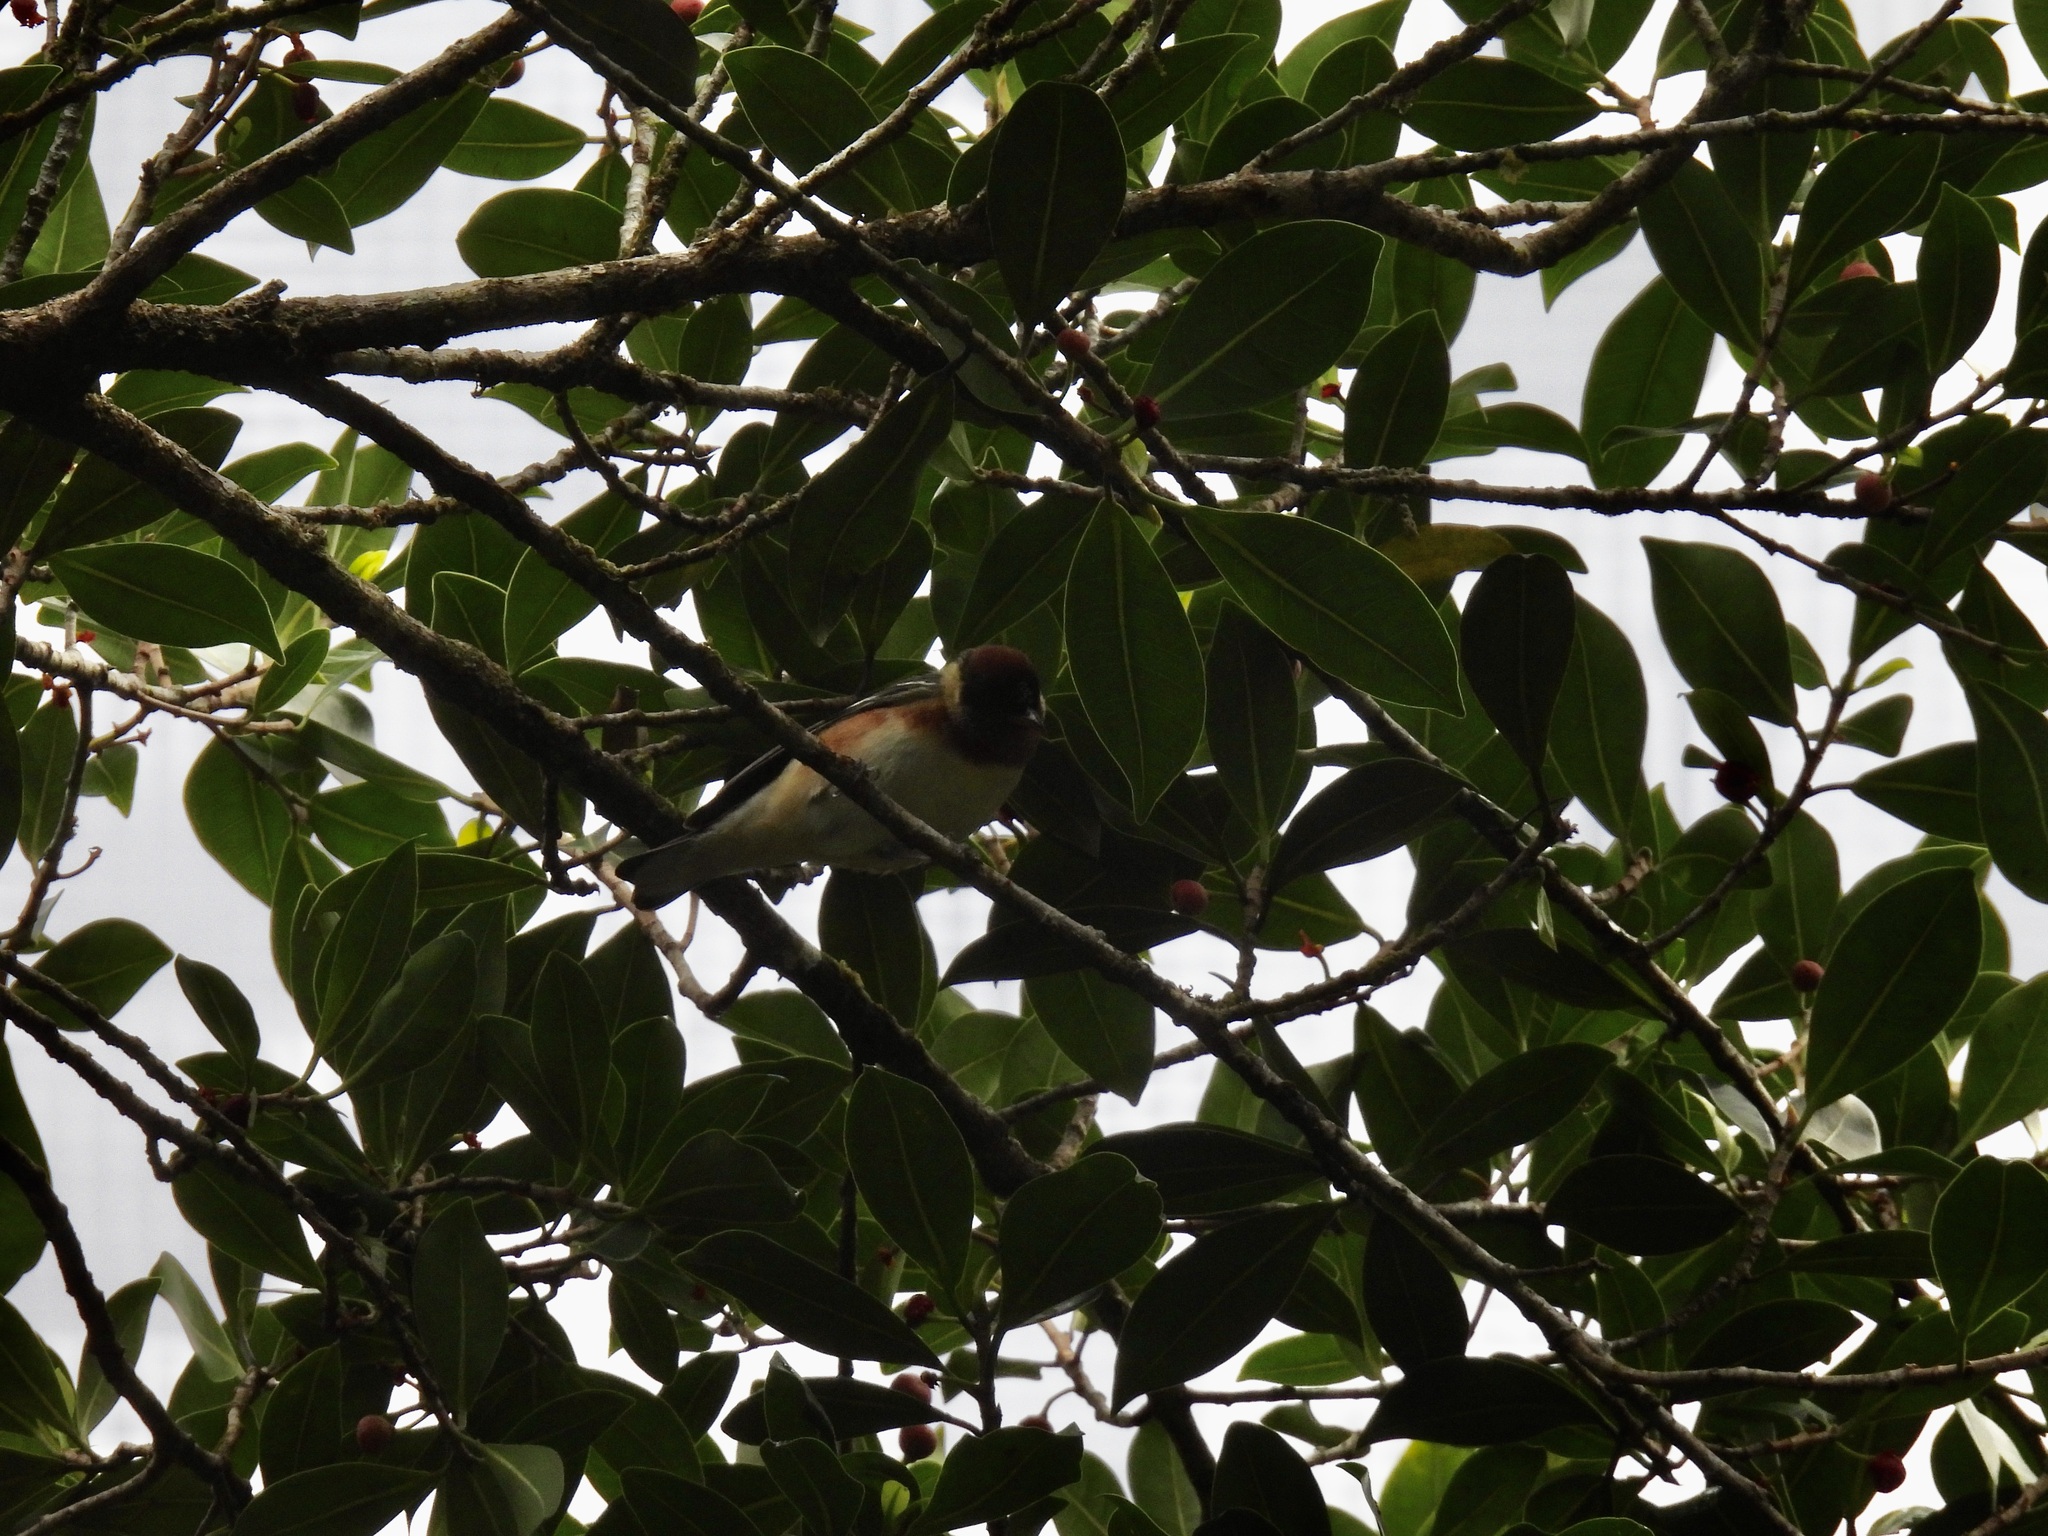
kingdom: Animalia
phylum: Chordata
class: Aves
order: Passeriformes
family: Parulidae
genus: Setophaga
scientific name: Setophaga castanea
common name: Bay-breasted warbler
